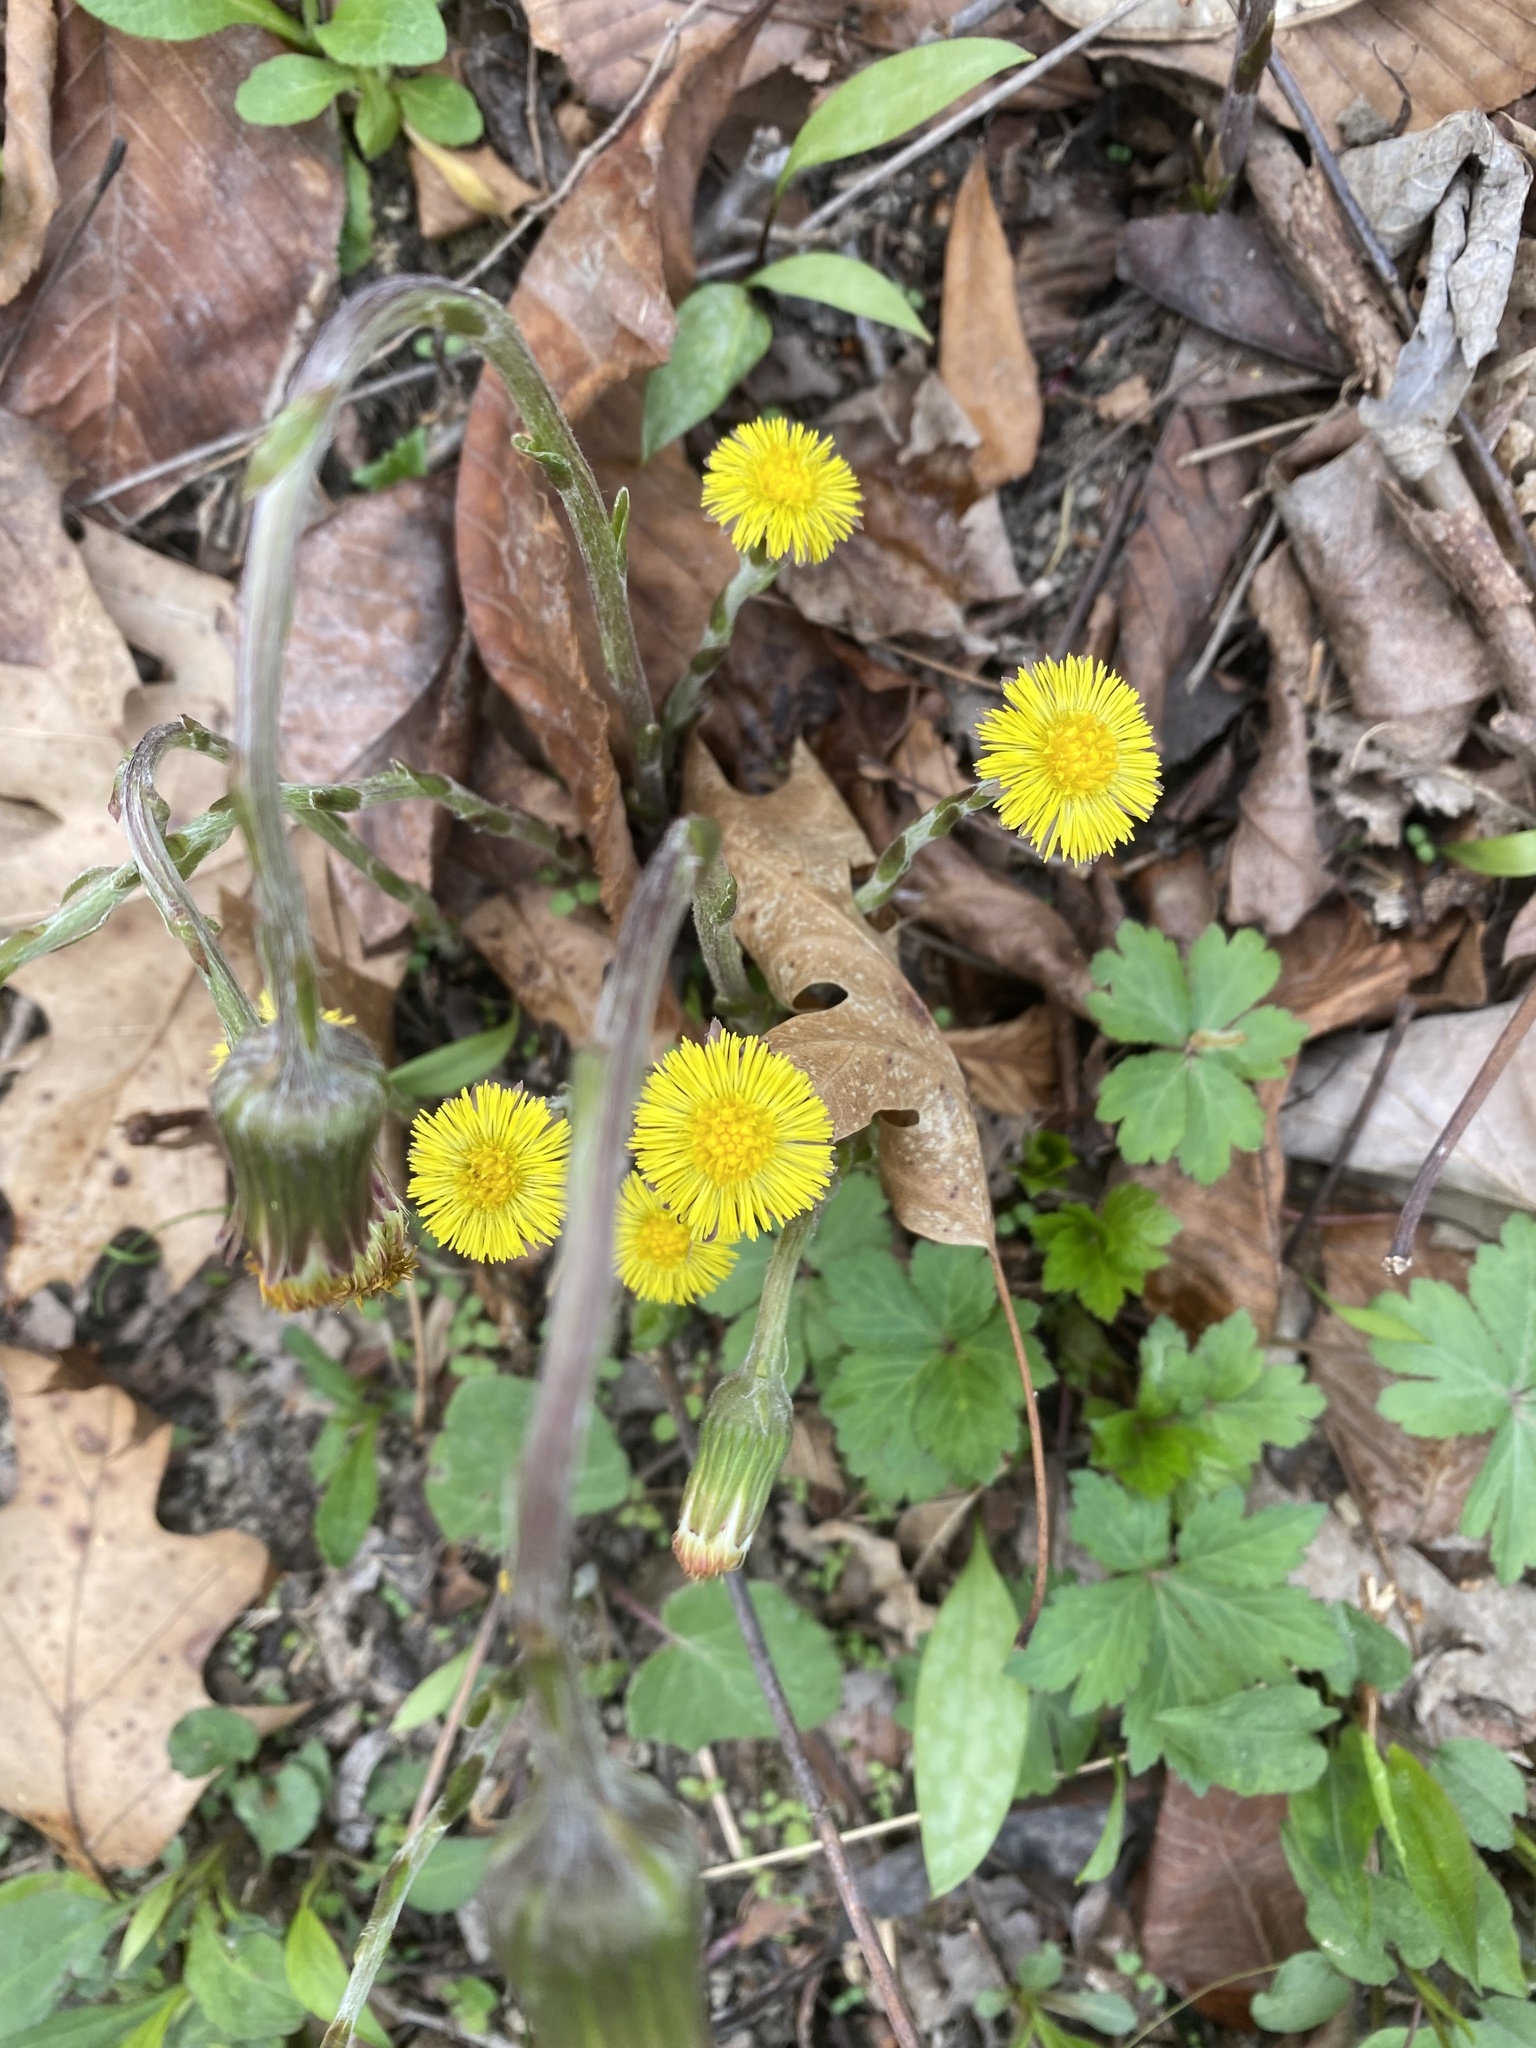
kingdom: Plantae
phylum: Tracheophyta
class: Magnoliopsida
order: Asterales
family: Asteraceae
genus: Tussilago
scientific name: Tussilago farfara
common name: Coltsfoot
